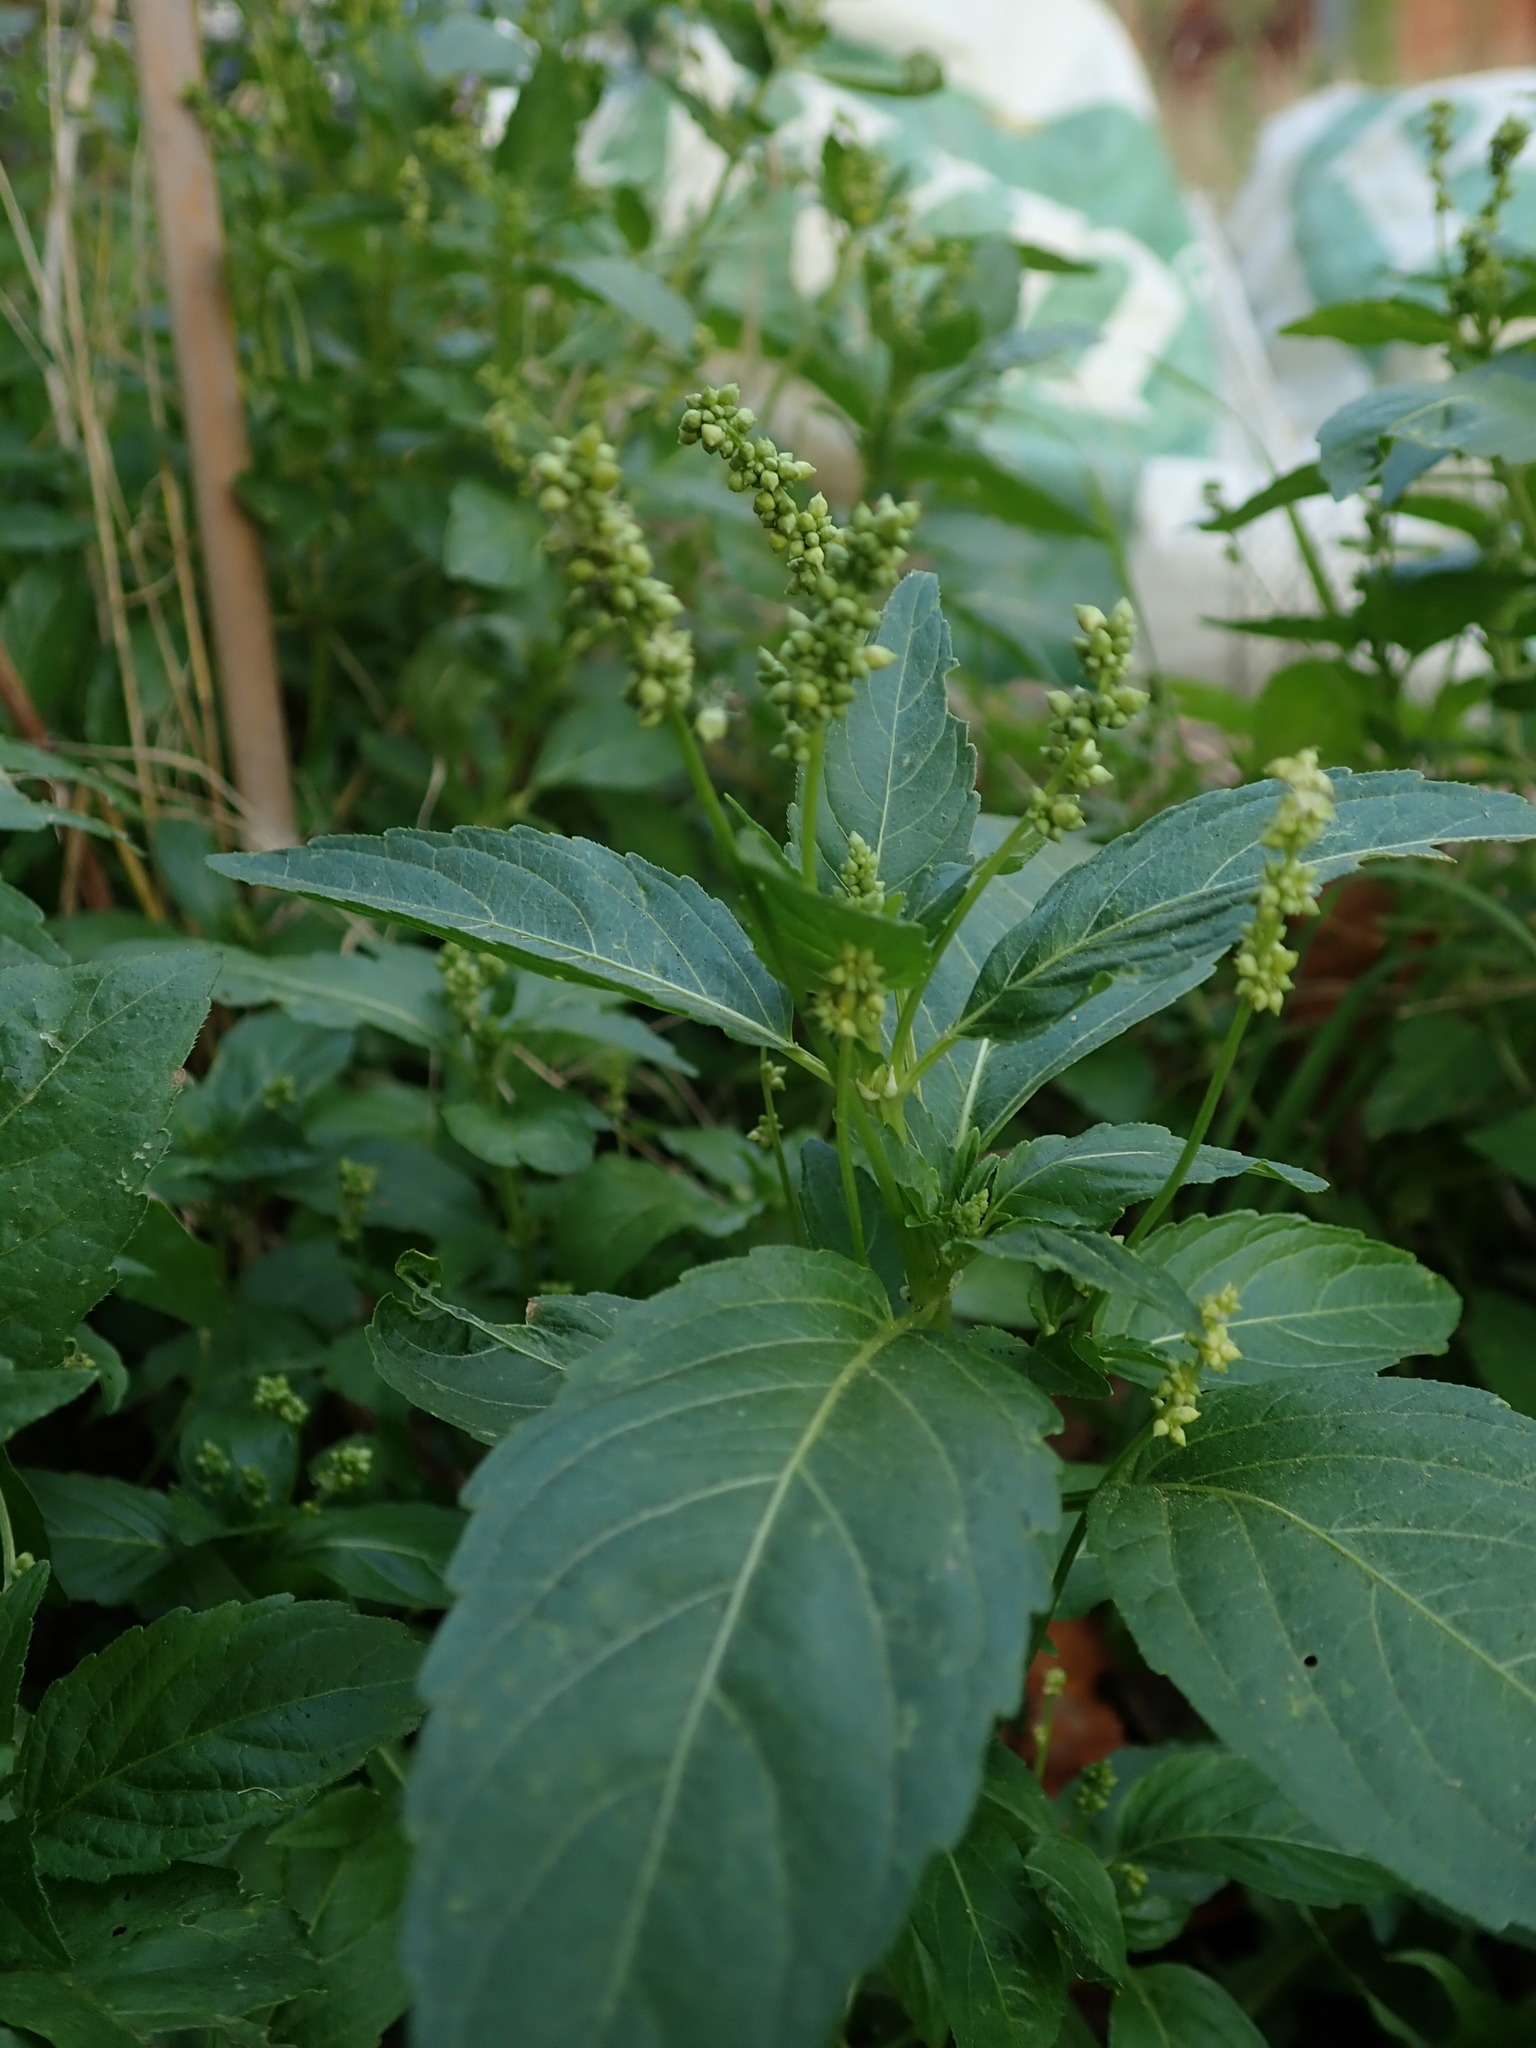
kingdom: Plantae
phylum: Tracheophyta
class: Magnoliopsida
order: Malpighiales
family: Euphorbiaceae
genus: Mercurialis
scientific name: Mercurialis annua
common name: Annual mercury
